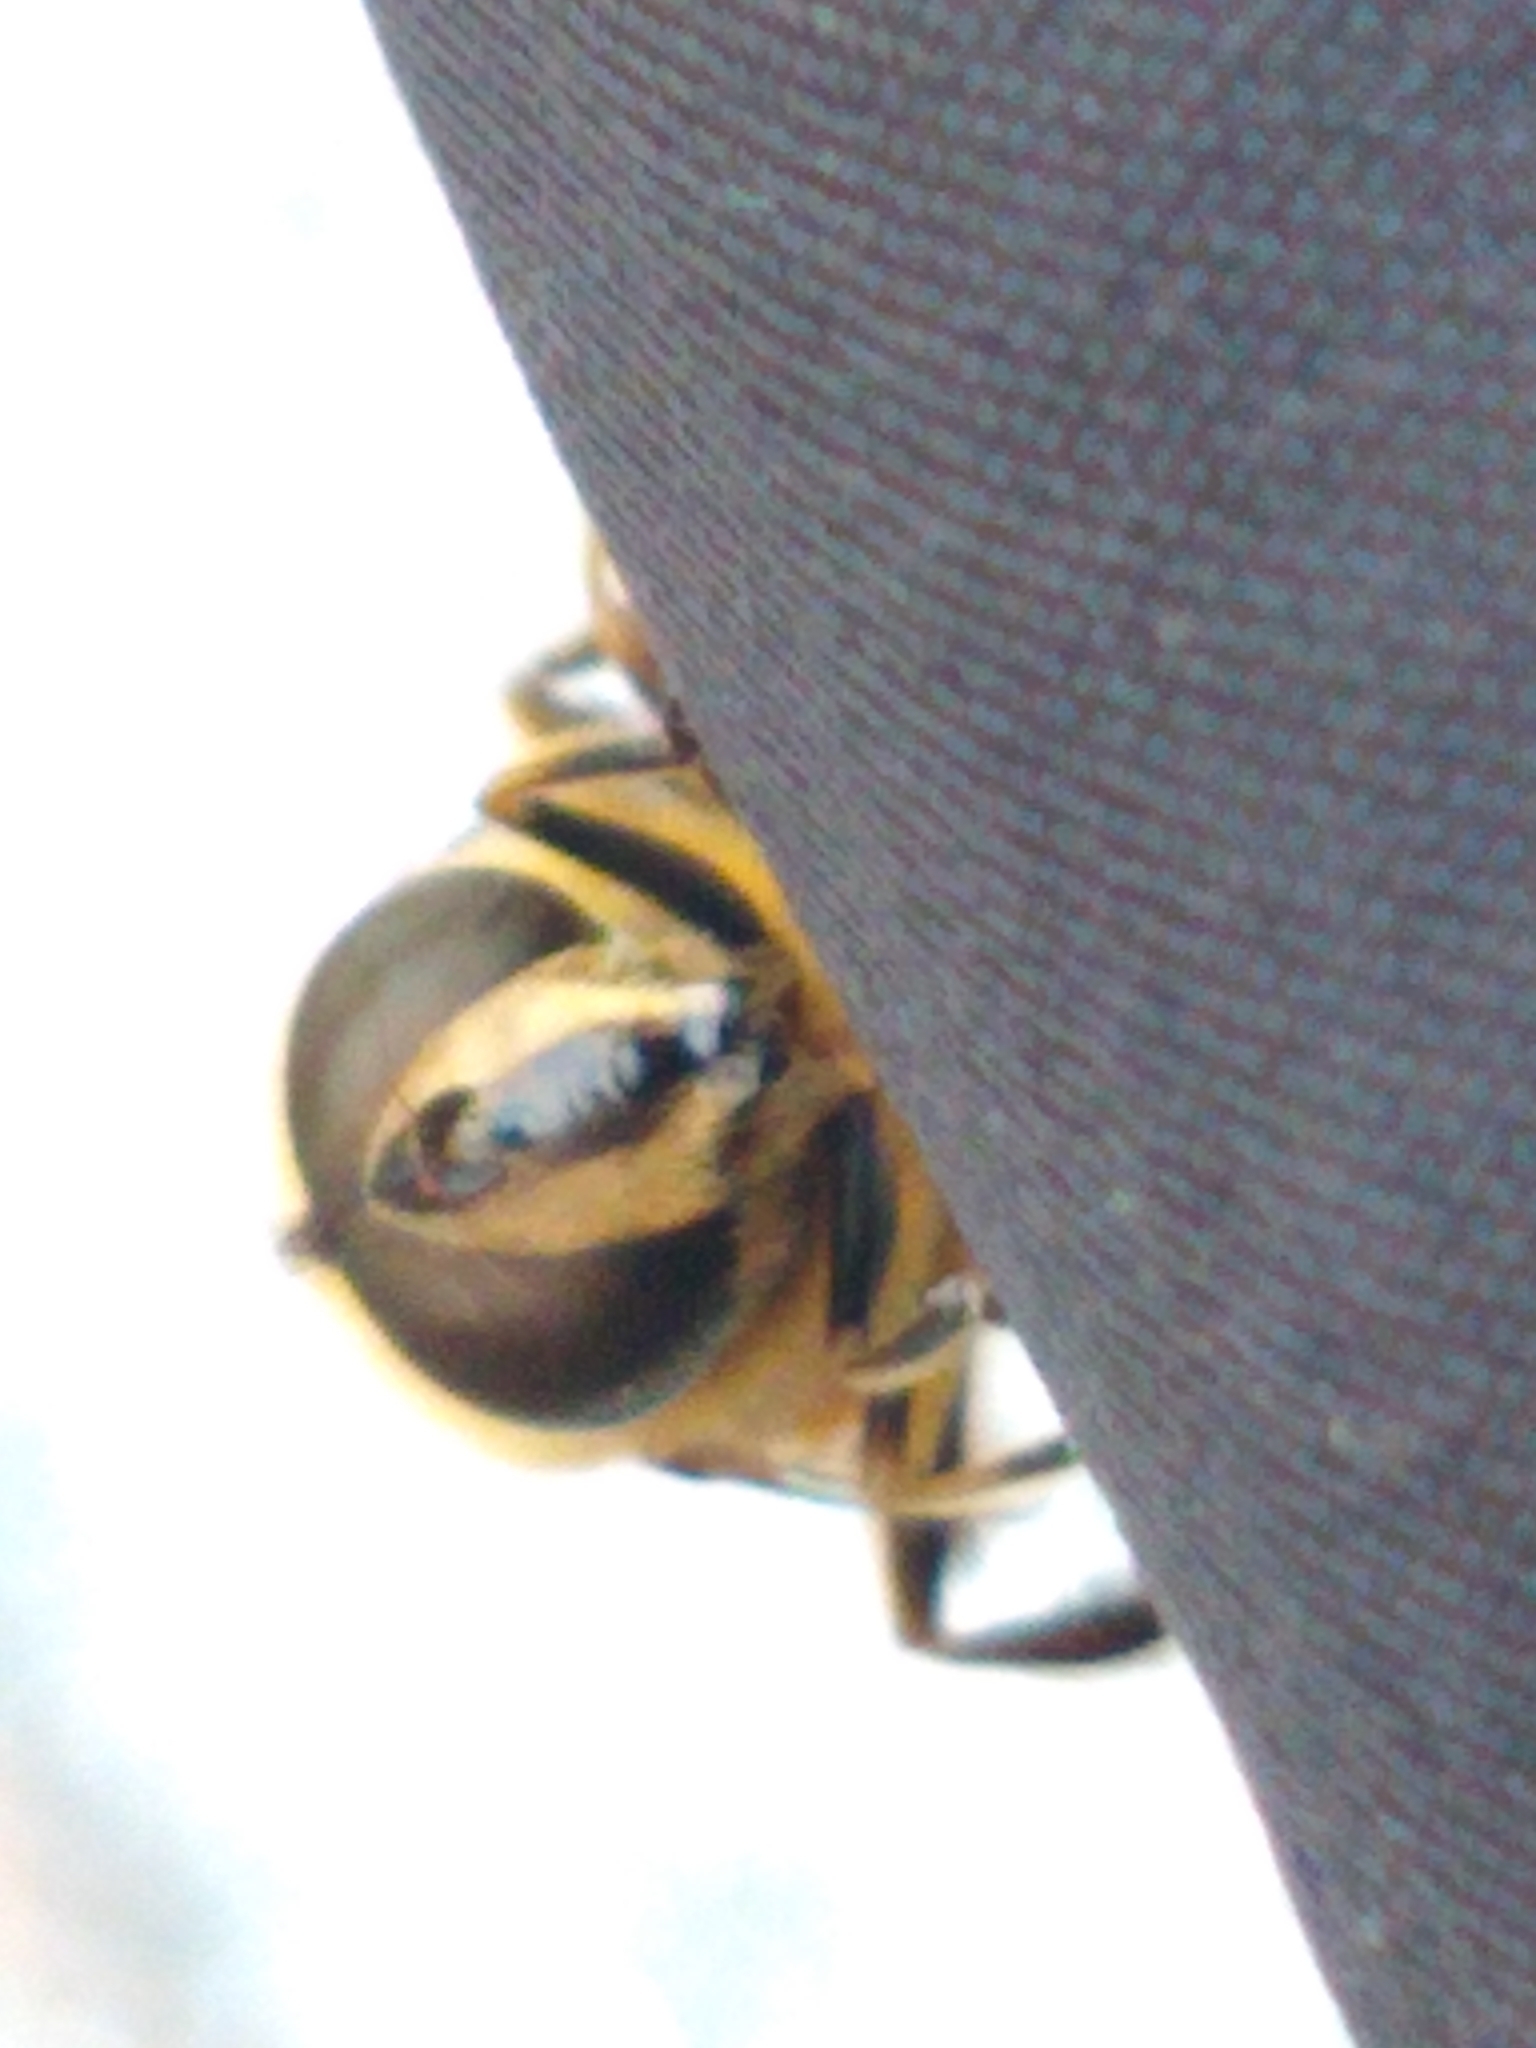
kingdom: Animalia
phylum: Arthropoda
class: Insecta
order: Diptera
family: Syrphidae
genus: Eristalis
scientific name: Eristalis tenax
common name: Drone fly
